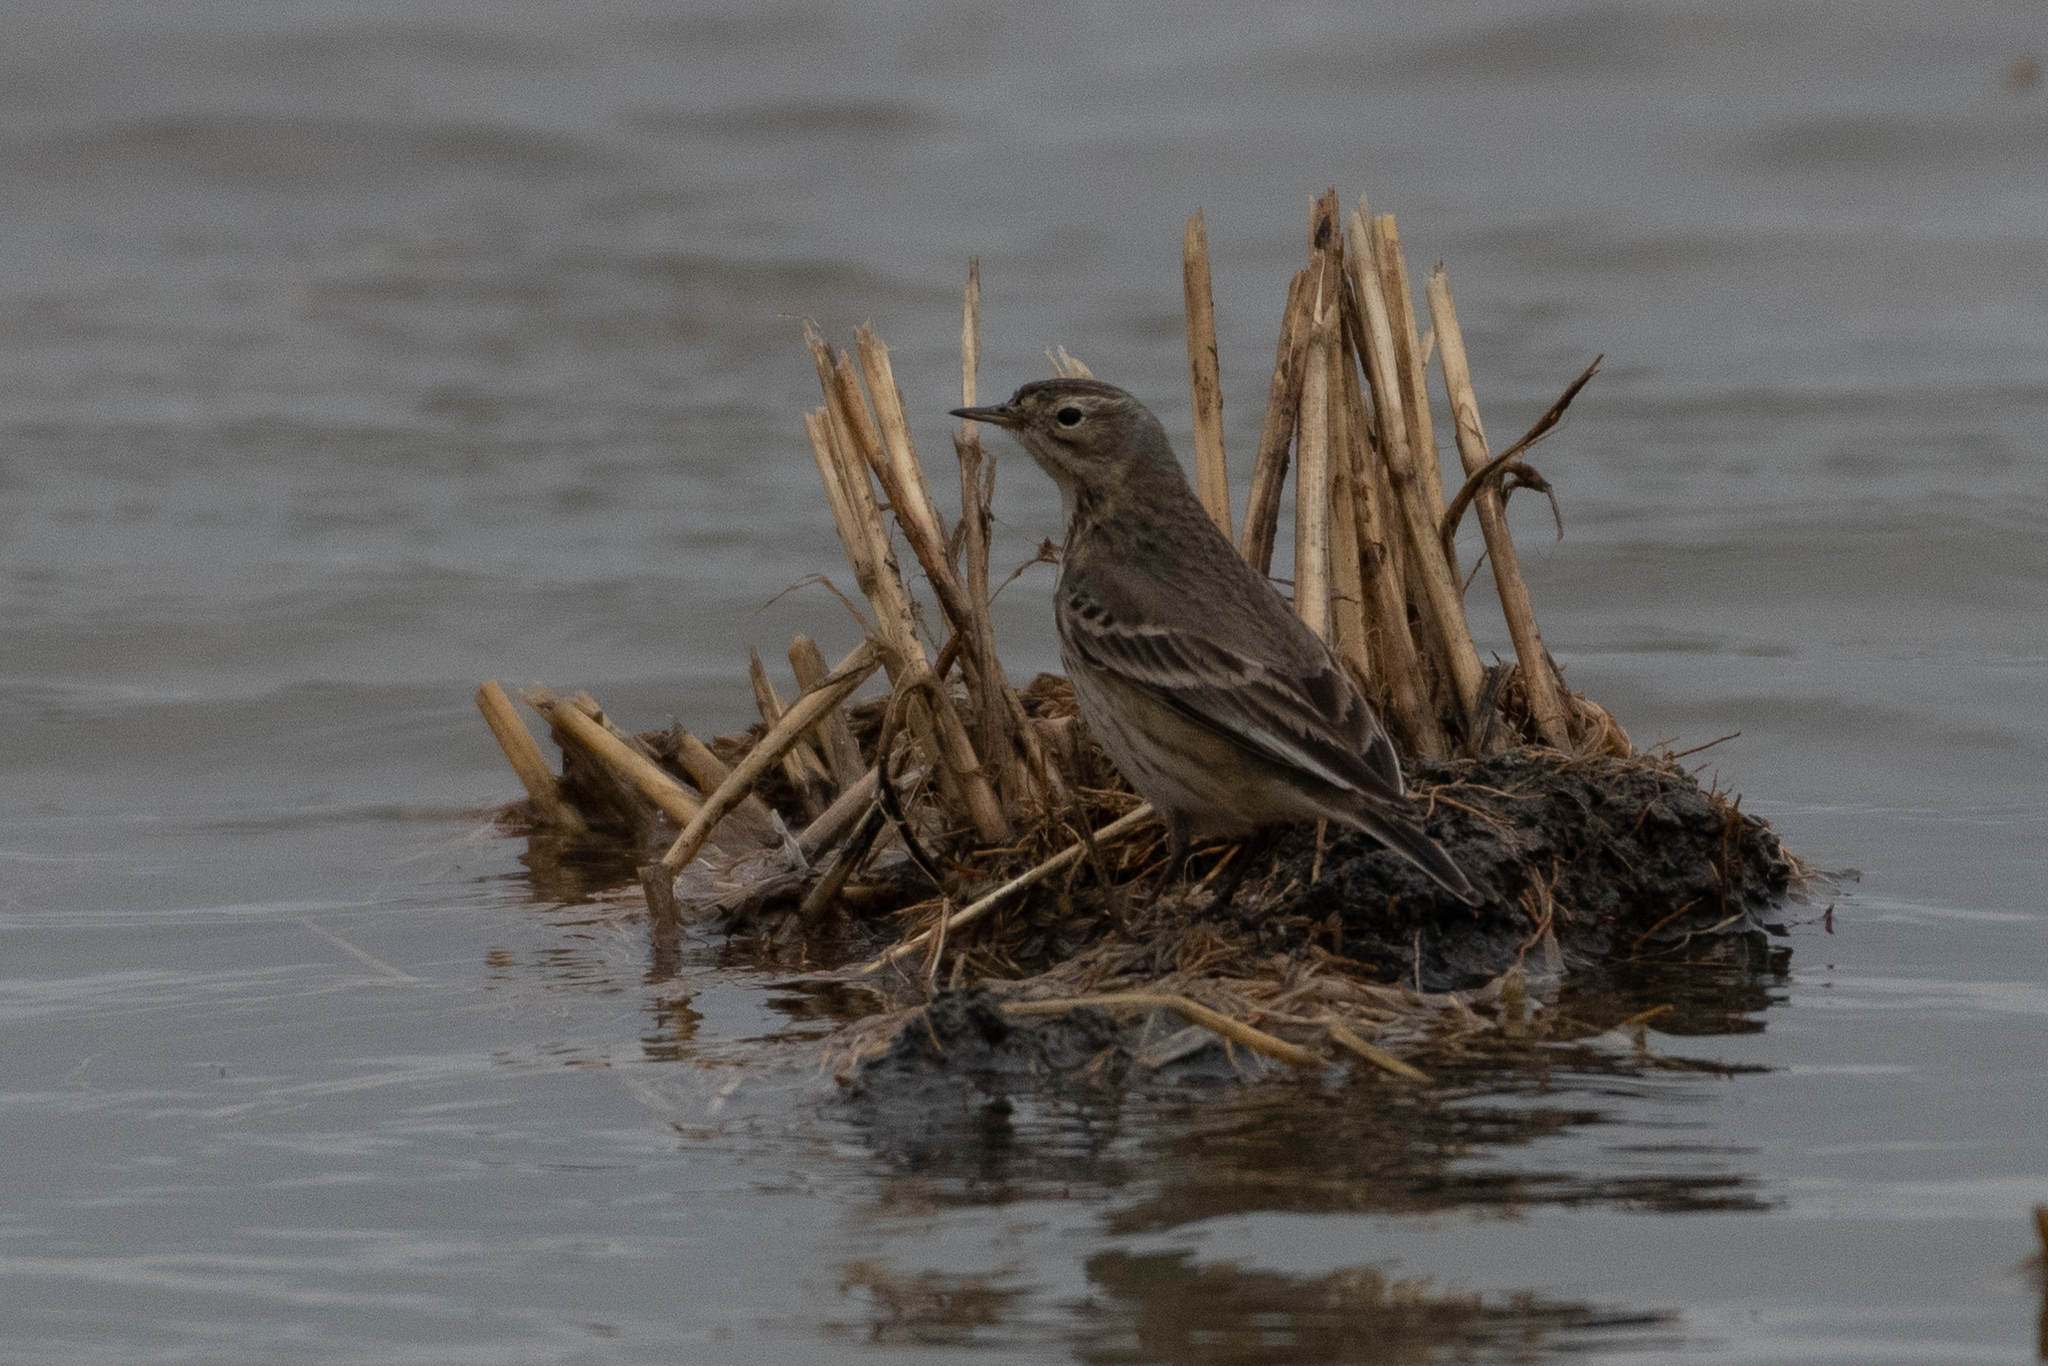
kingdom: Animalia
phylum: Chordata
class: Aves
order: Passeriformes
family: Motacillidae
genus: Anthus
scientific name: Anthus rubescens
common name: Buff-bellied pipit
